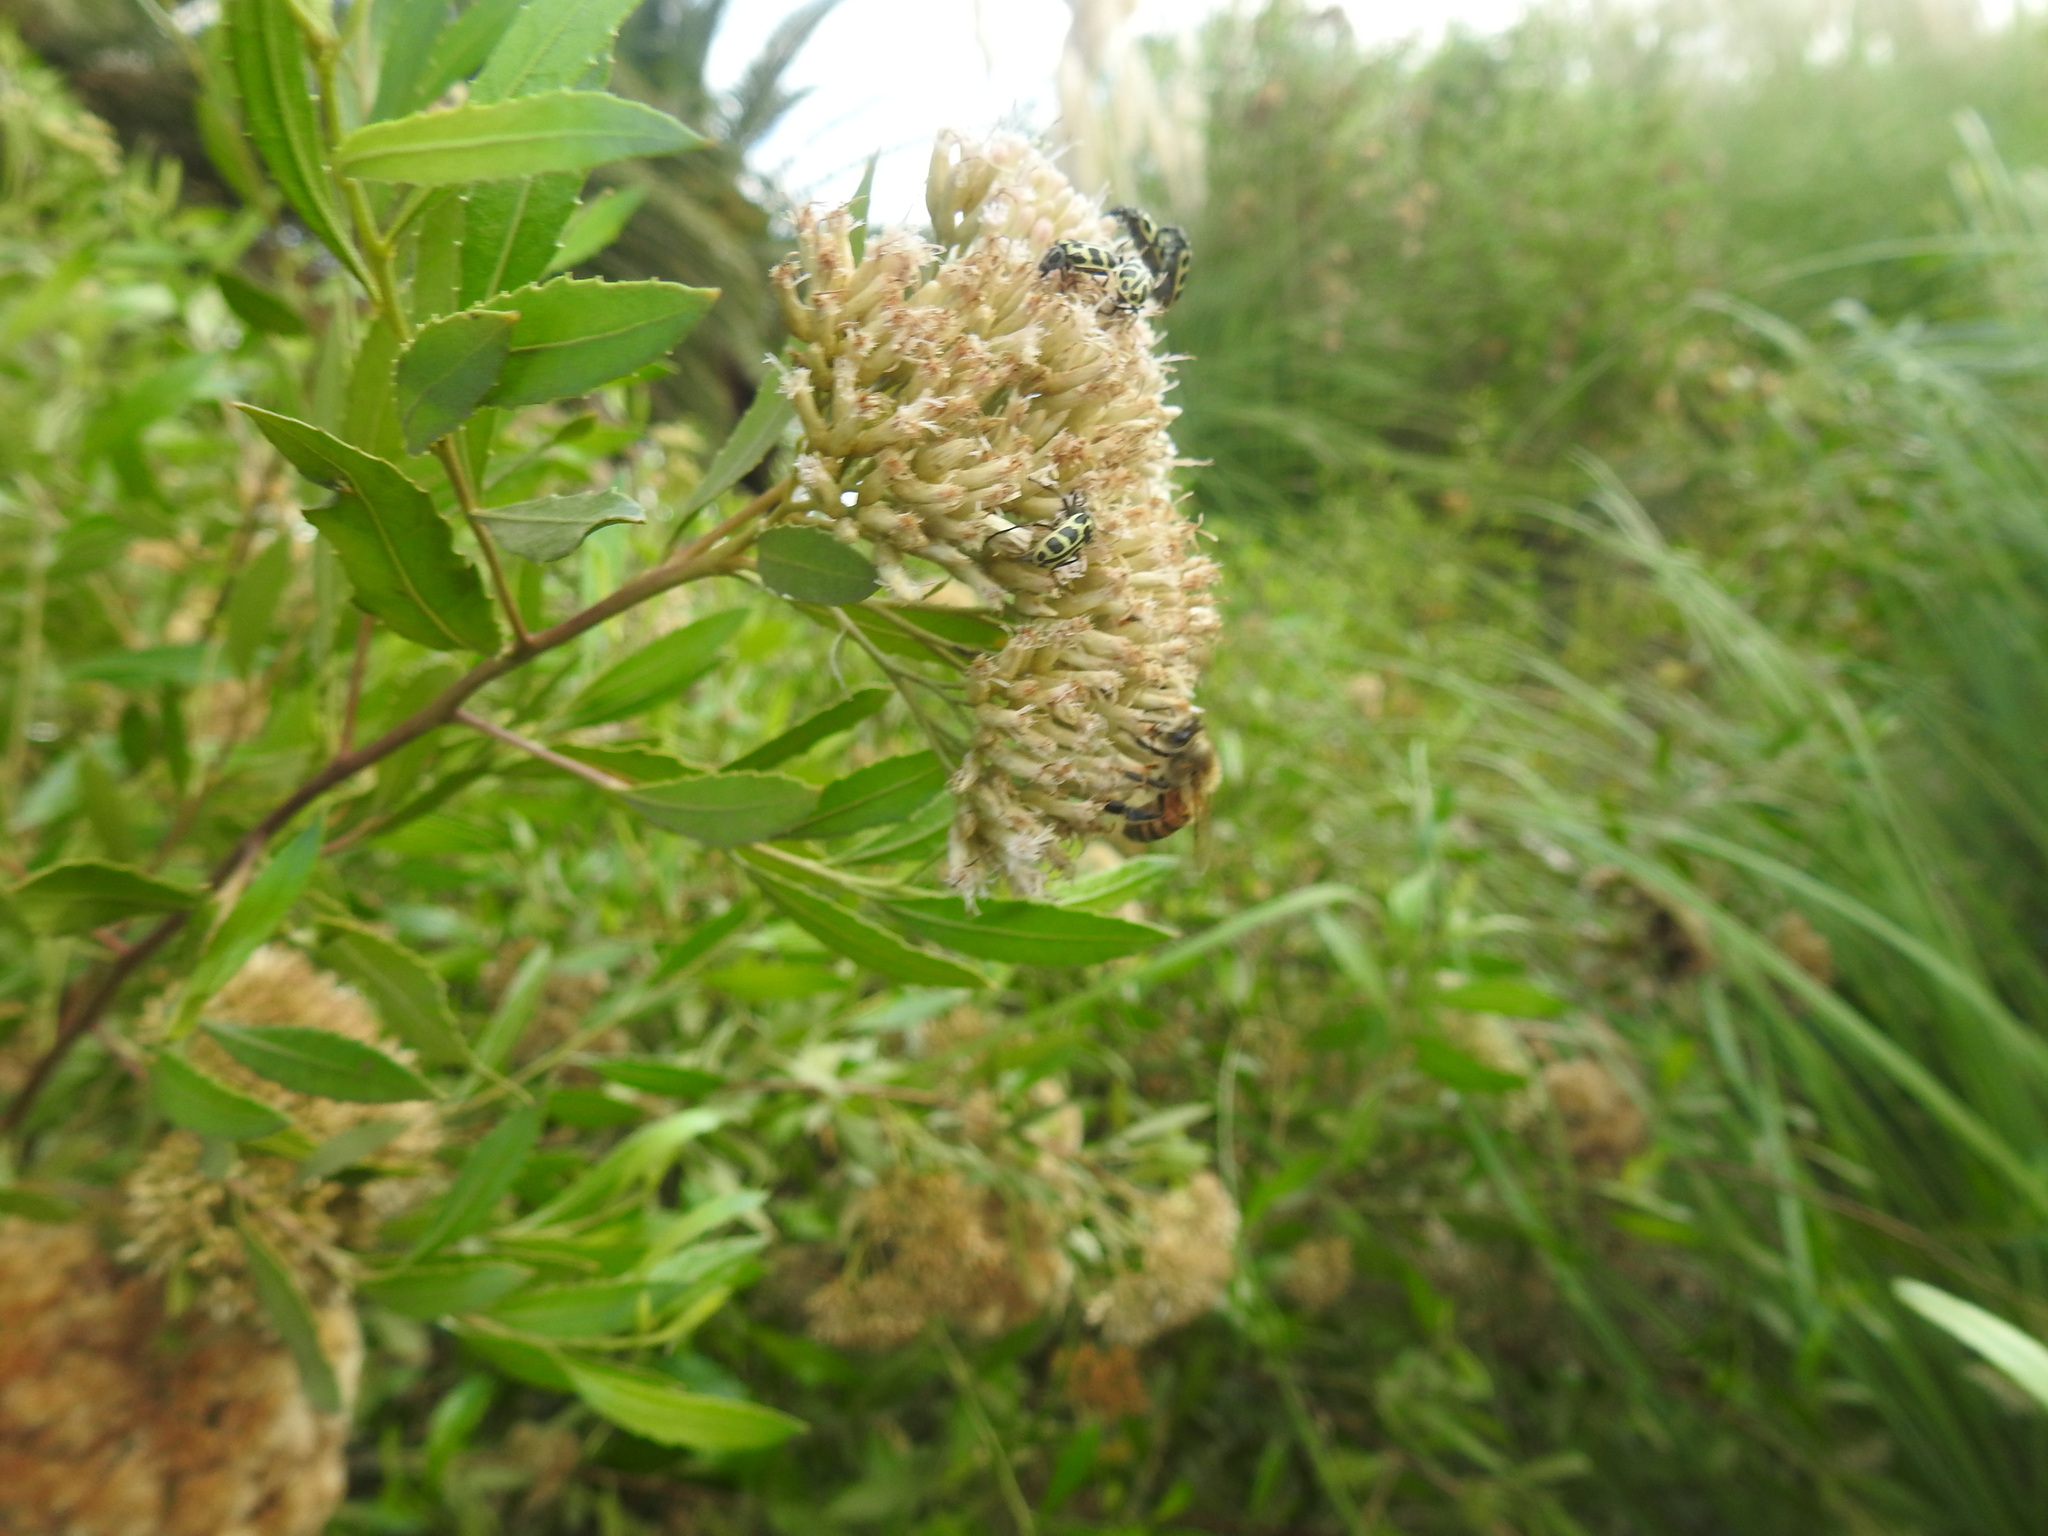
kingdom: Animalia
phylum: Arthropoda
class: Insecta
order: Hymenoptera
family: Apidae
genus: Apis
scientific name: Apis mellifera
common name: Honey bee
